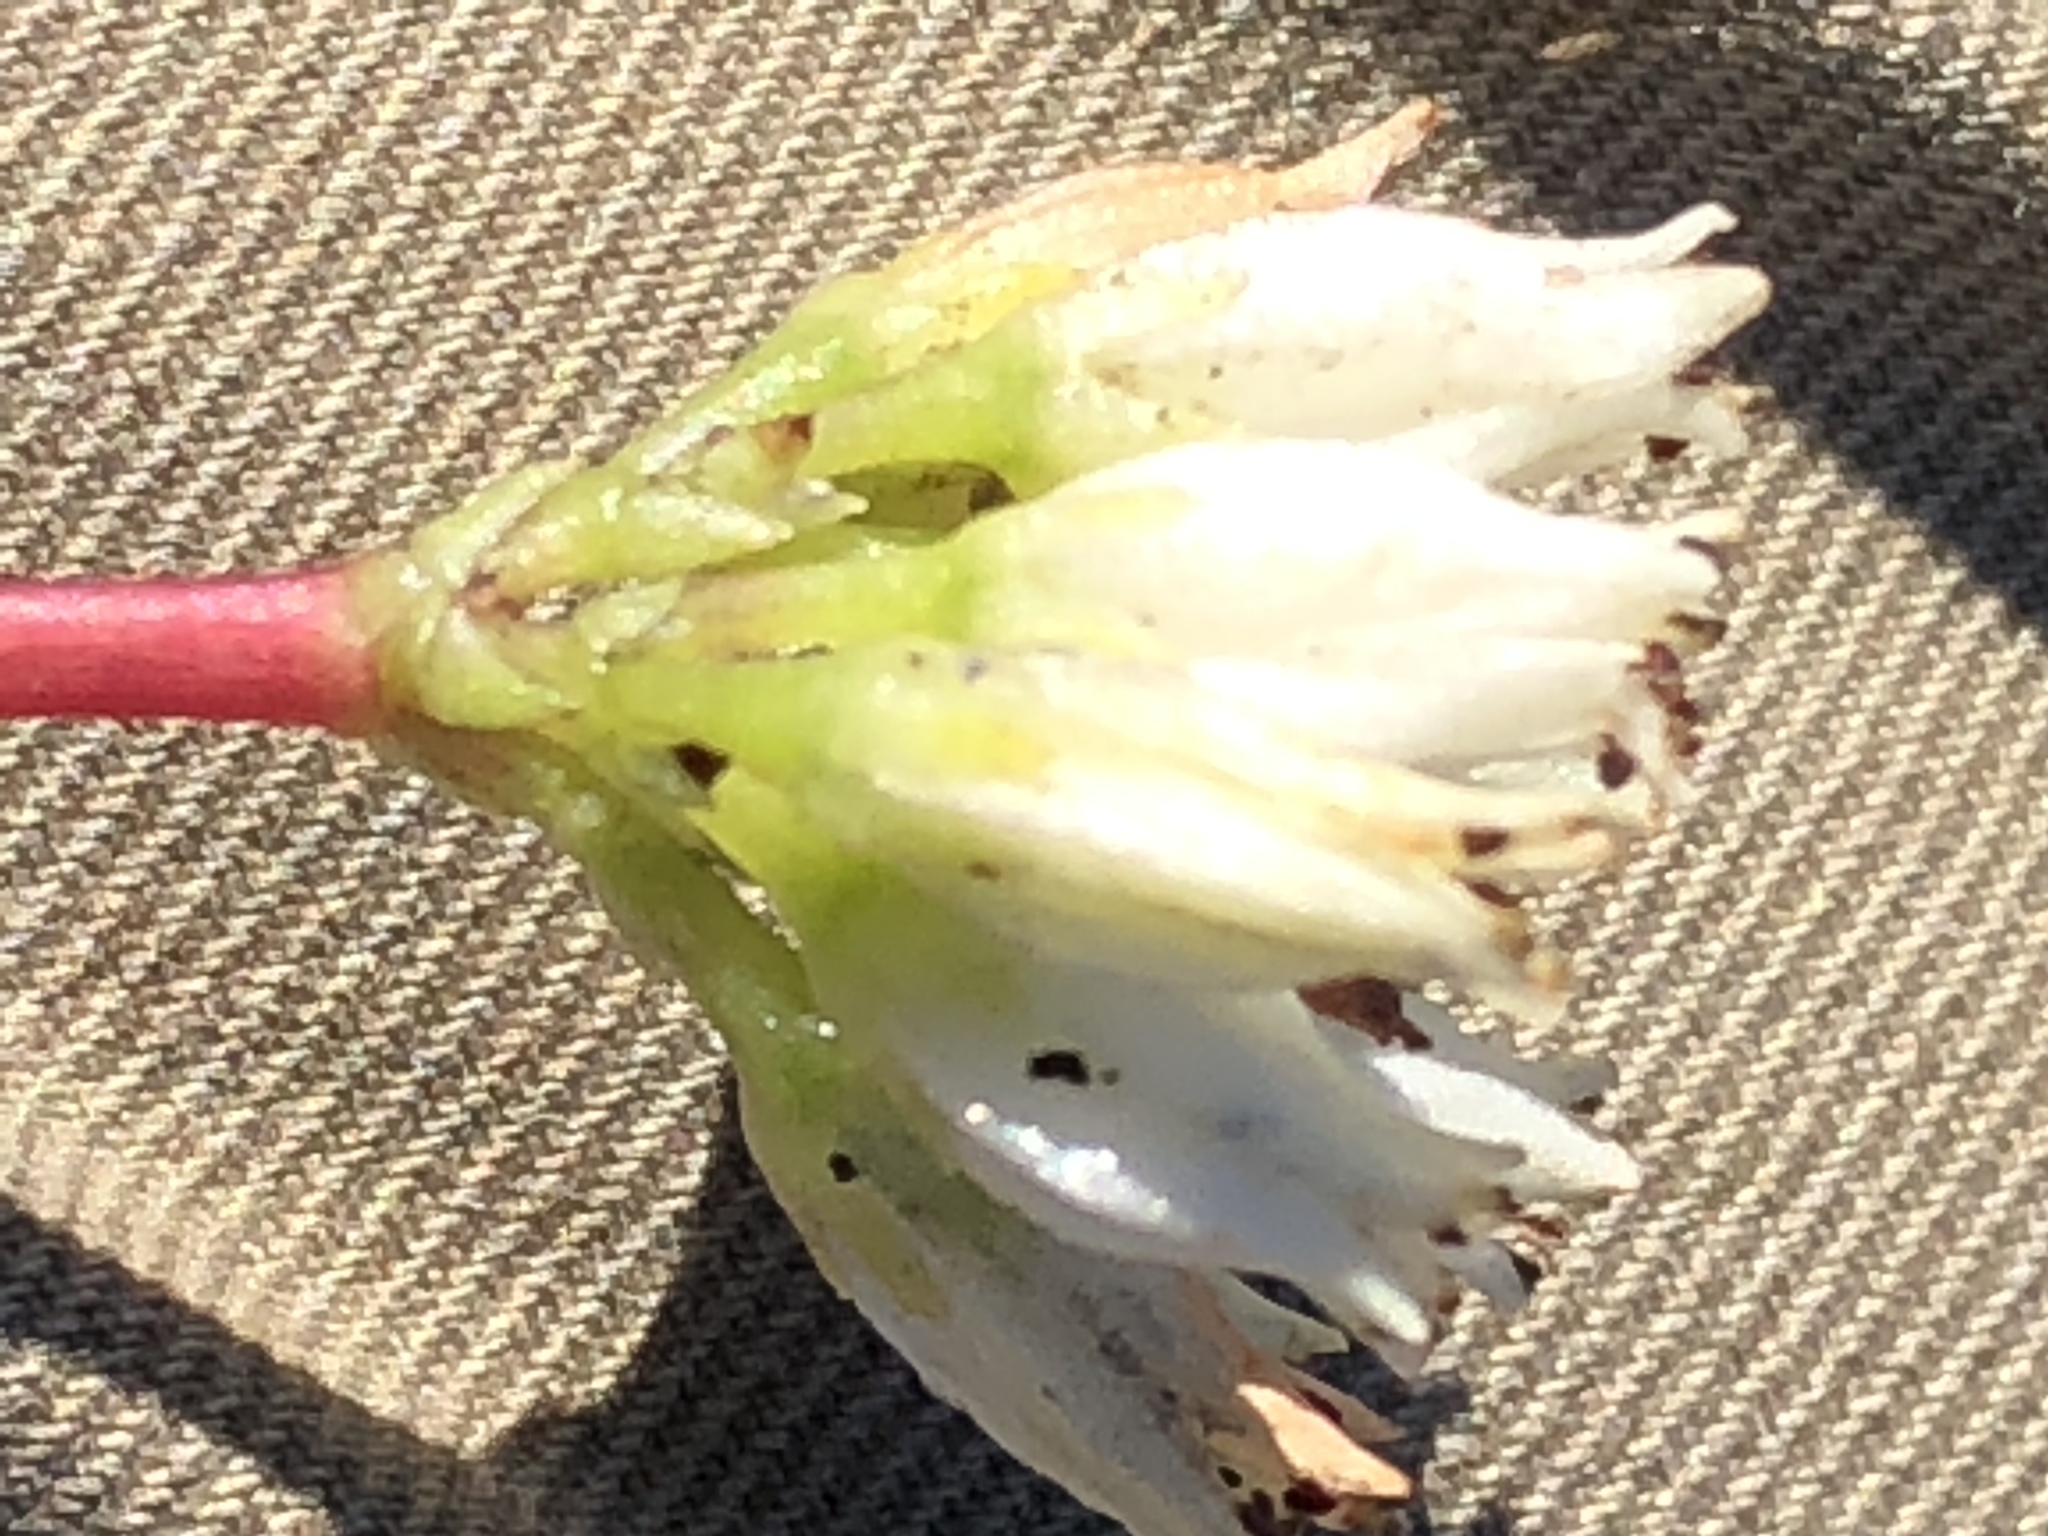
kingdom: Plantae
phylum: Tracheophyta
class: Magnoliopsida
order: Saxifragales
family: Crassulaceae
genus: Crassula
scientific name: Crassula biplanata
